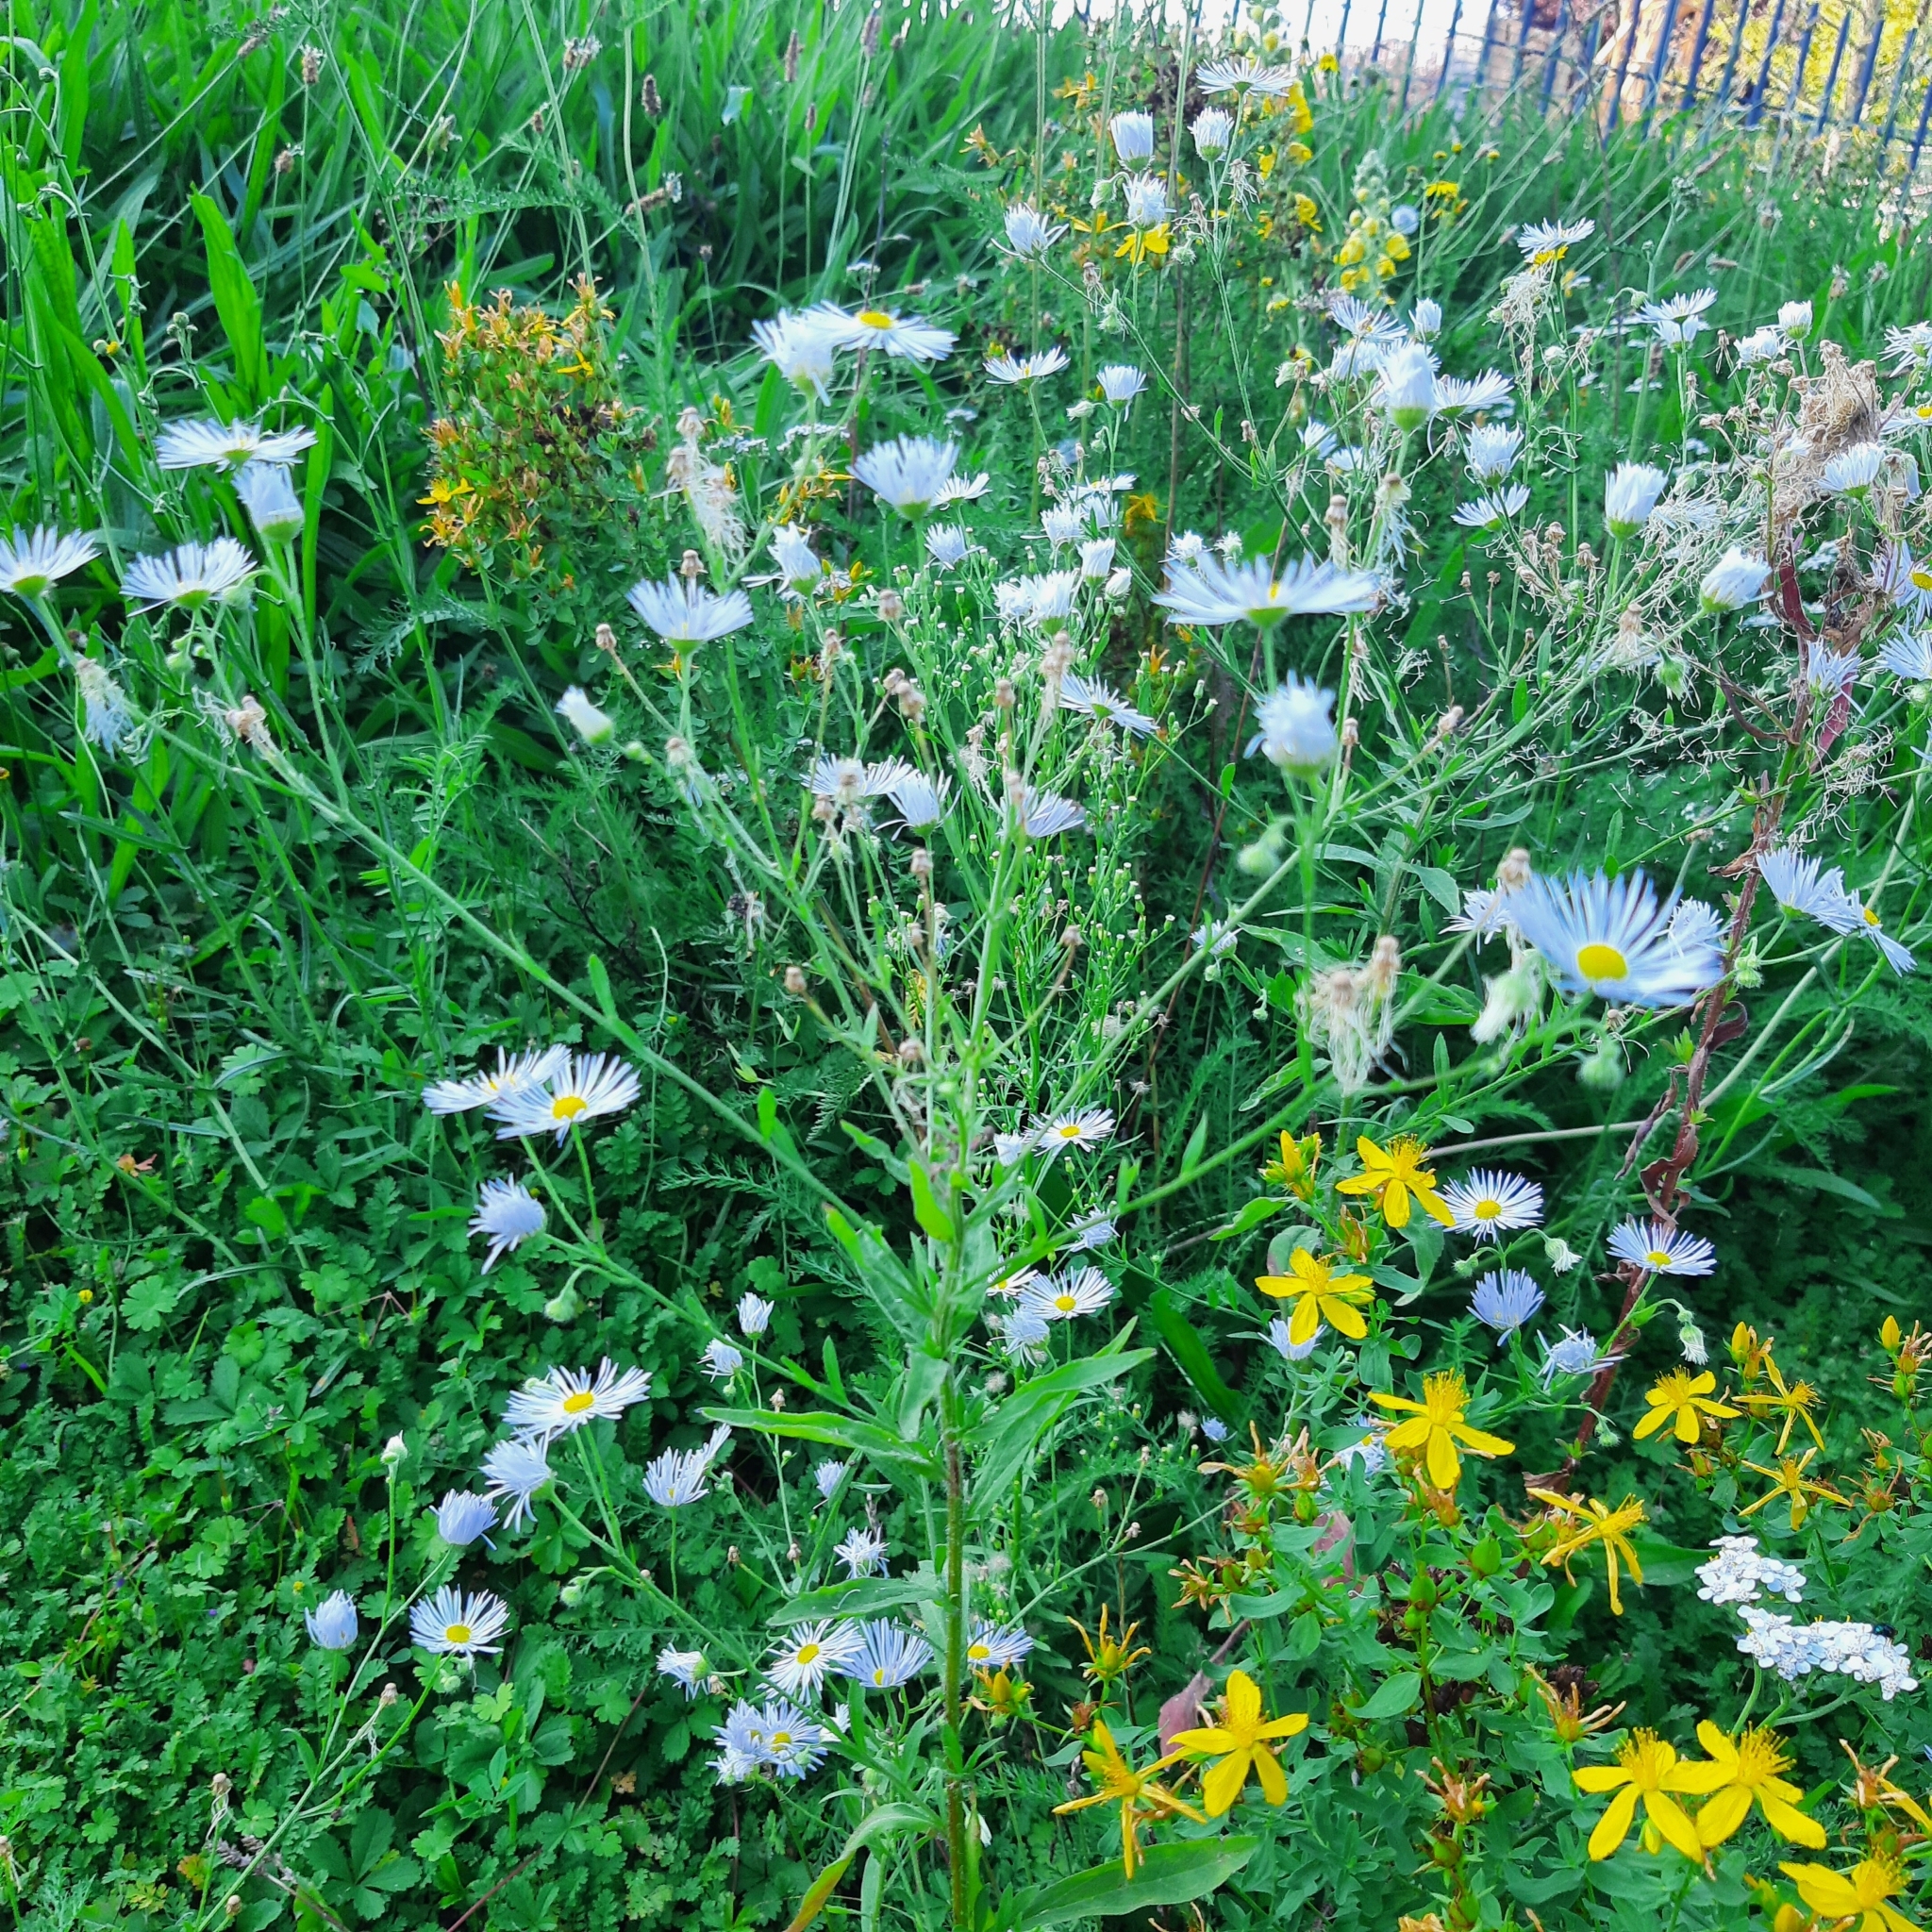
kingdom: Plantae
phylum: Tracheophyta
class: Magnoliopsida
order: Asterales
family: Asteraceae
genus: Erigeron
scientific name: Erigeron annuus
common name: Tall fleabane
